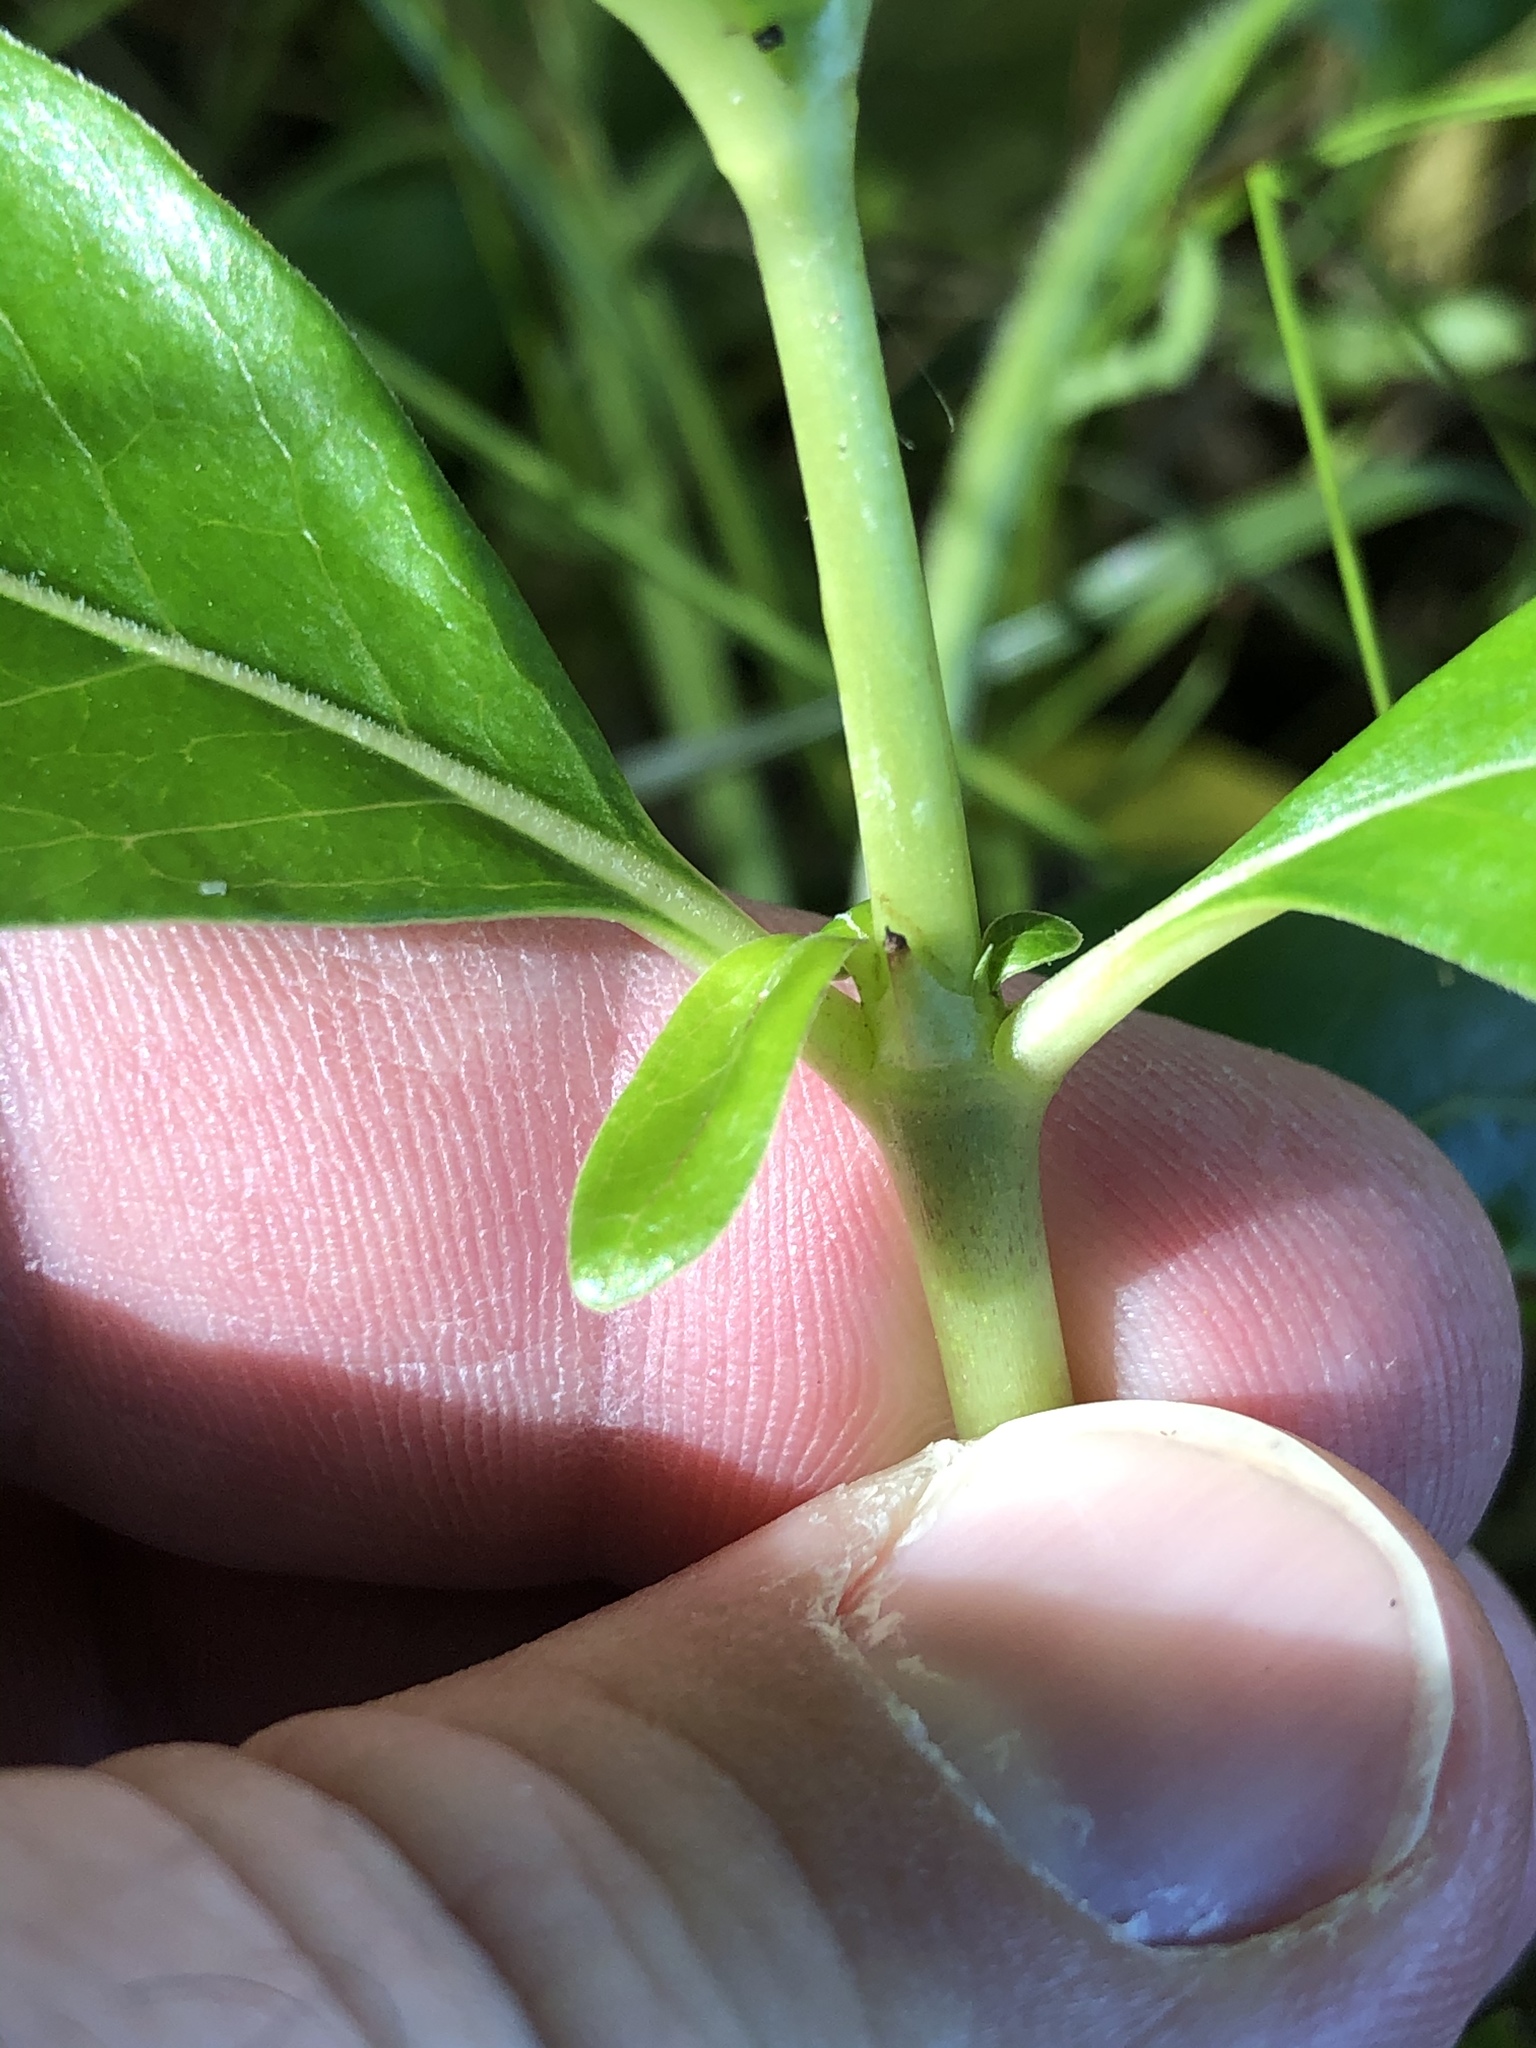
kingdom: Plantae
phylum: Tracheophyta
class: Magnoliopsida
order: Gentianales
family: Rubiaceae
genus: Coprosma
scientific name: Coprosma robusta
